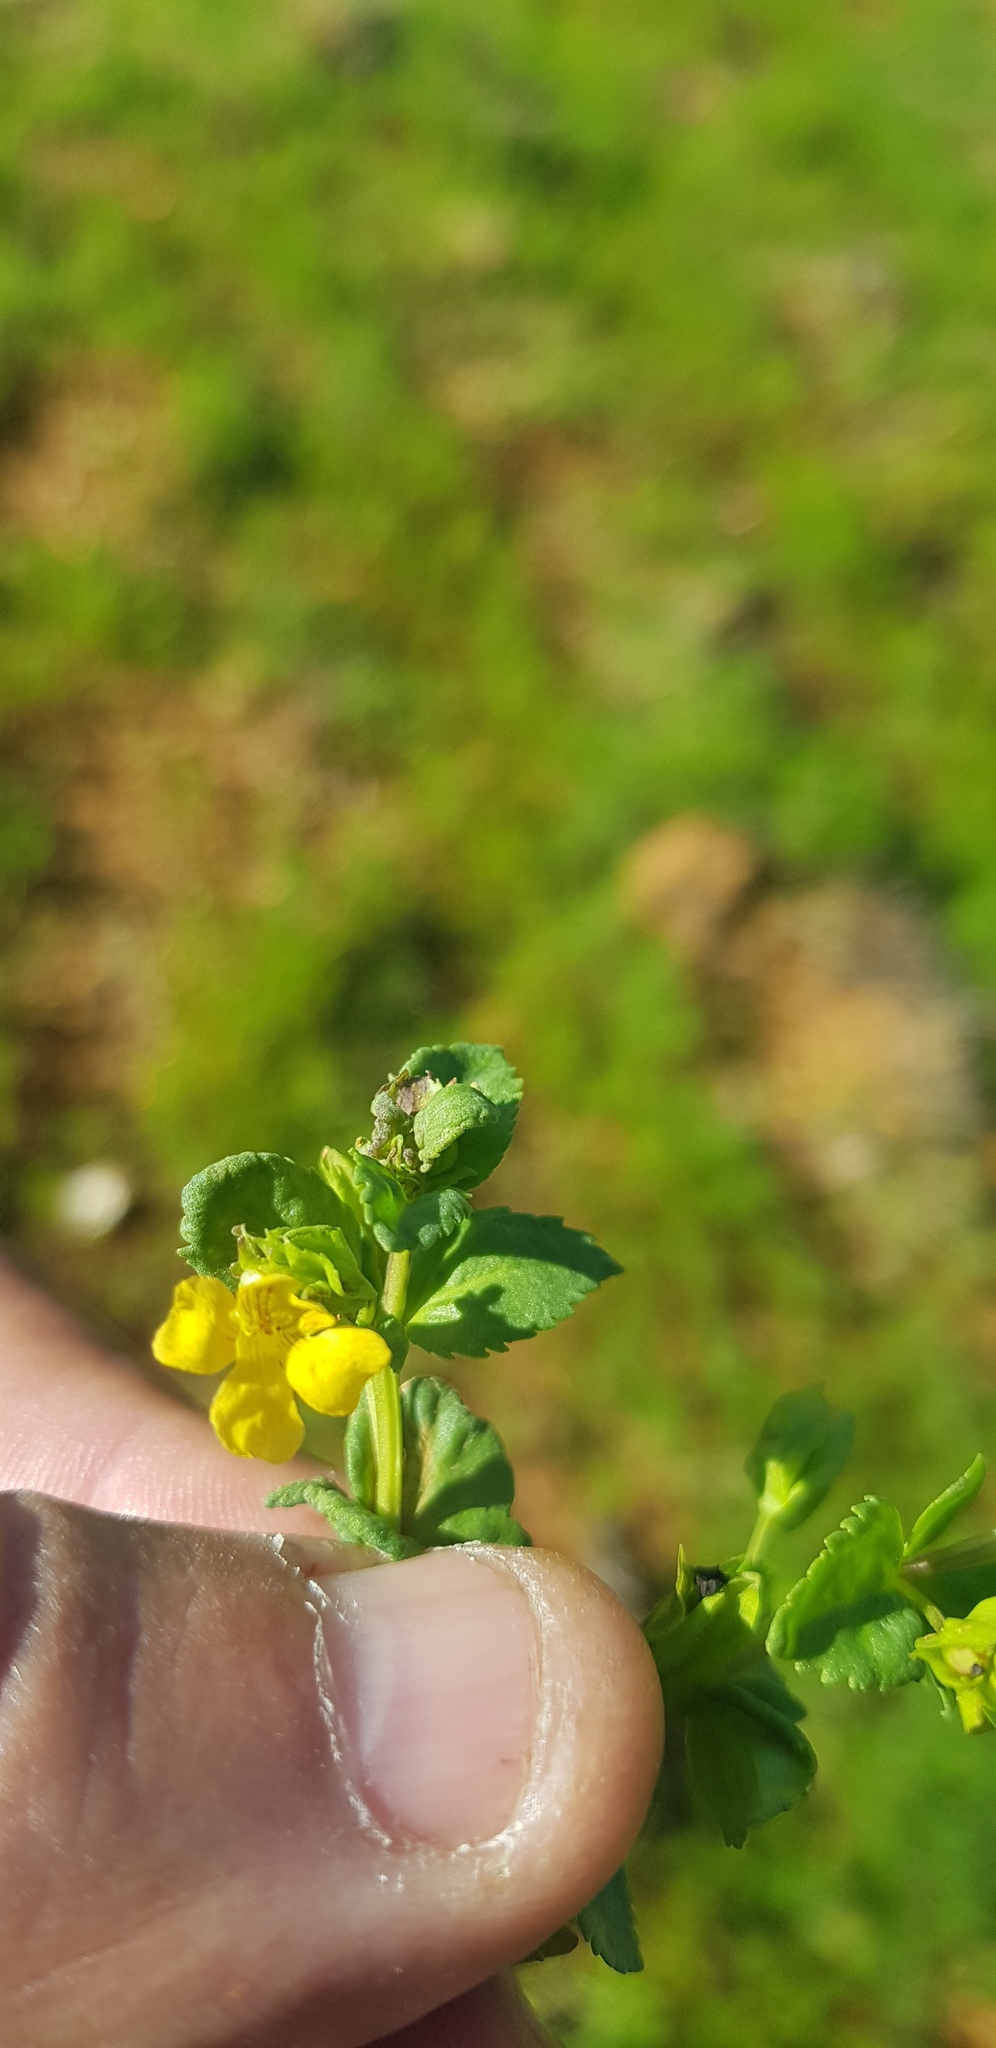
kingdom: Plantae
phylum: Tracheophyta
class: Magnoliopsida
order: Lamiales
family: Plantaginaceae
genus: Mecardonia
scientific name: Mecardonia procumbens
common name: Baby jump-up
